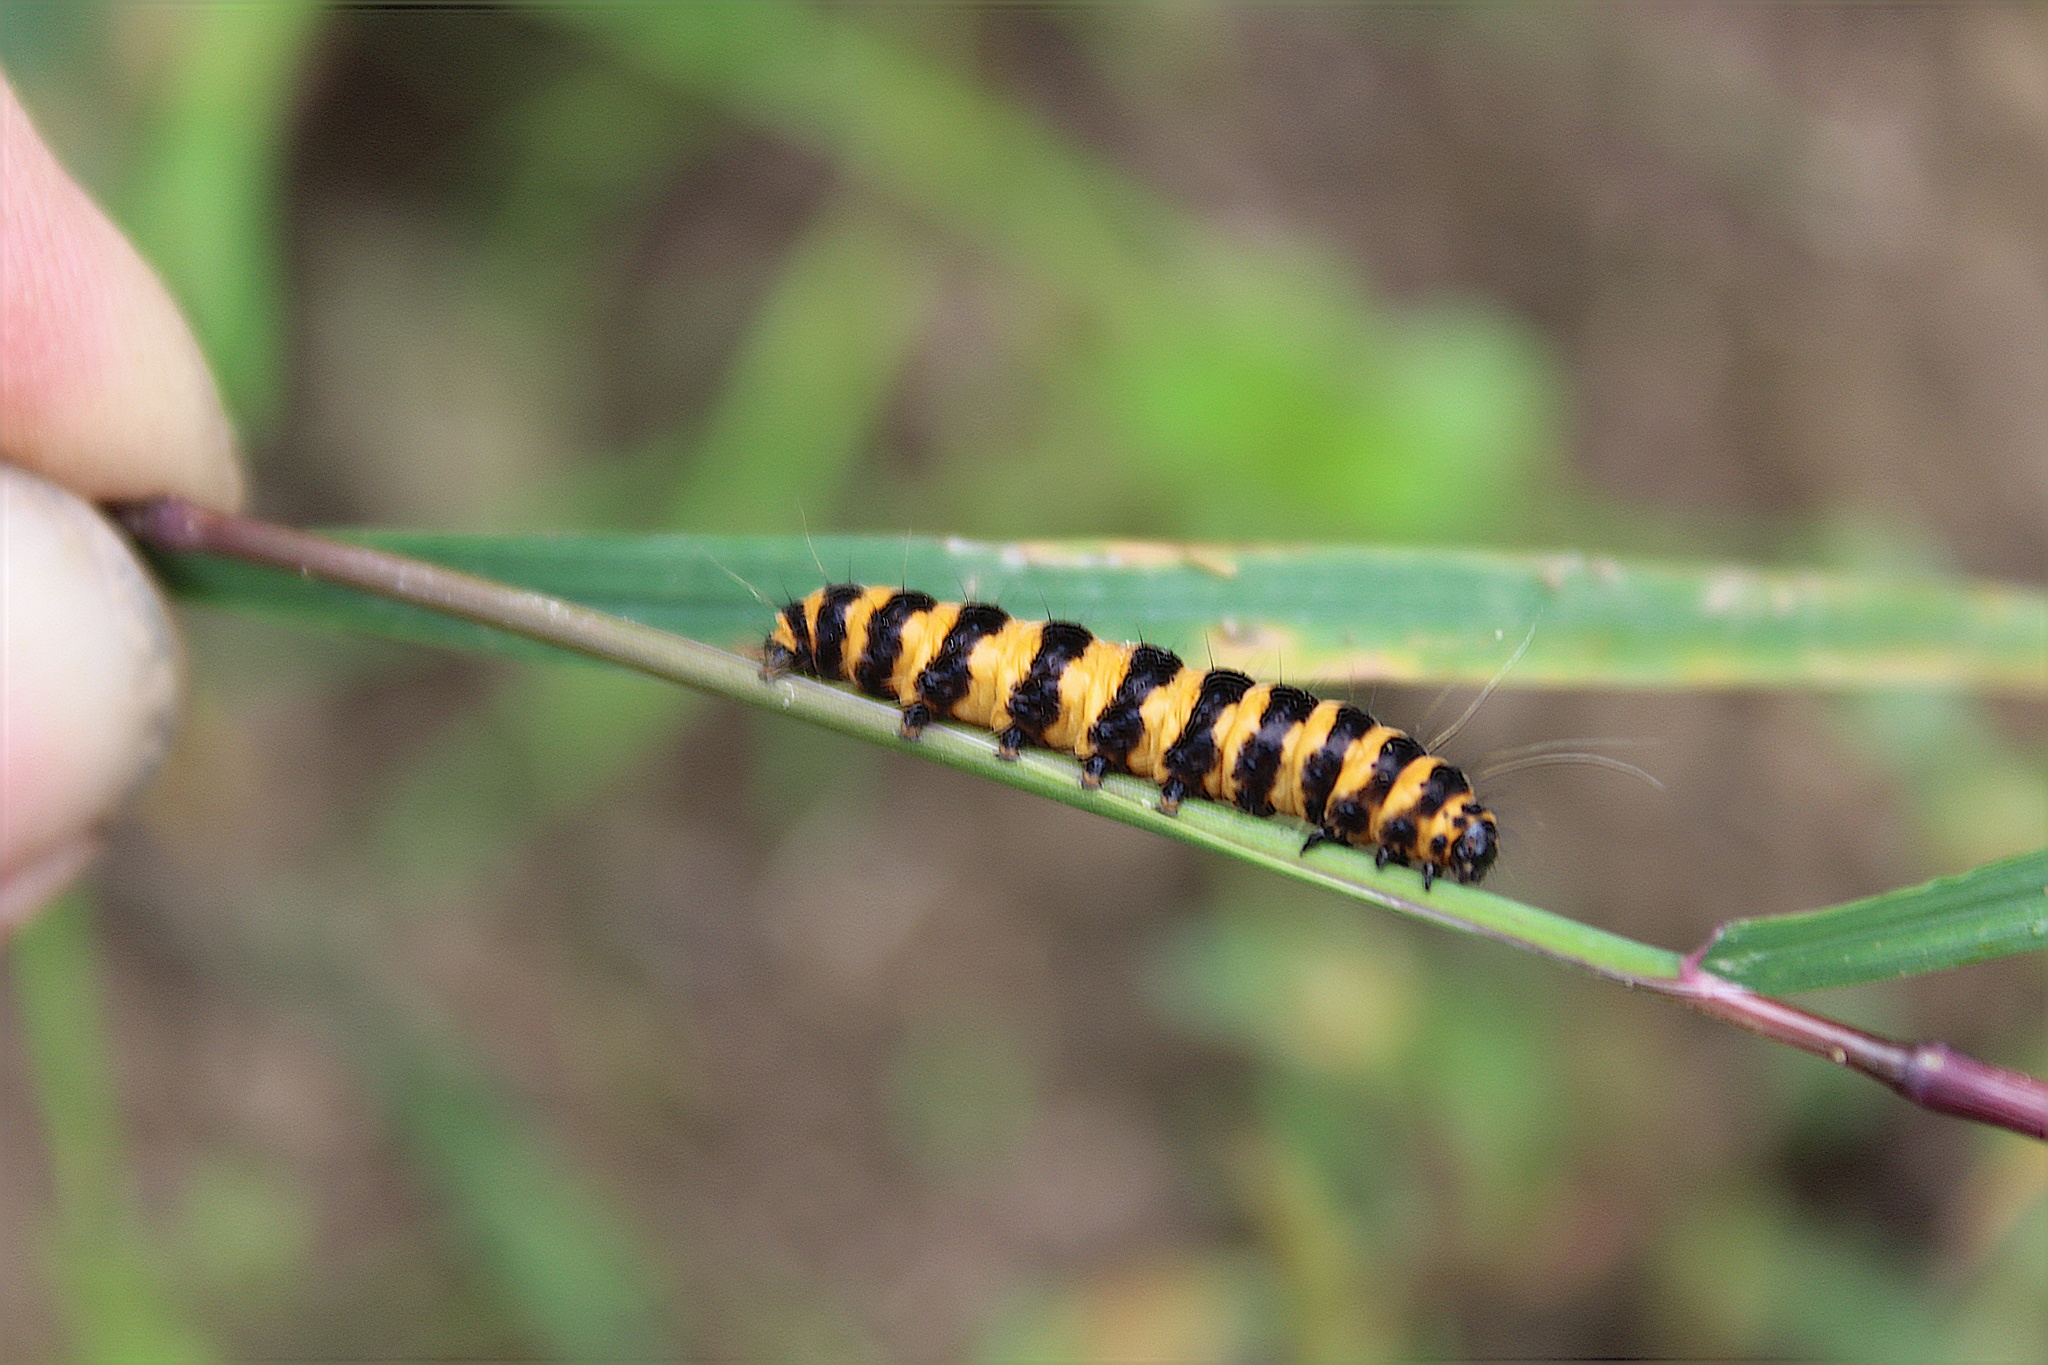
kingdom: Animalia
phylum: Arthropoda
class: Insecta
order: Lepidoptera
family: Erebidae
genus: Tyria
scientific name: Tyria jacobaeae
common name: Cinnabar
